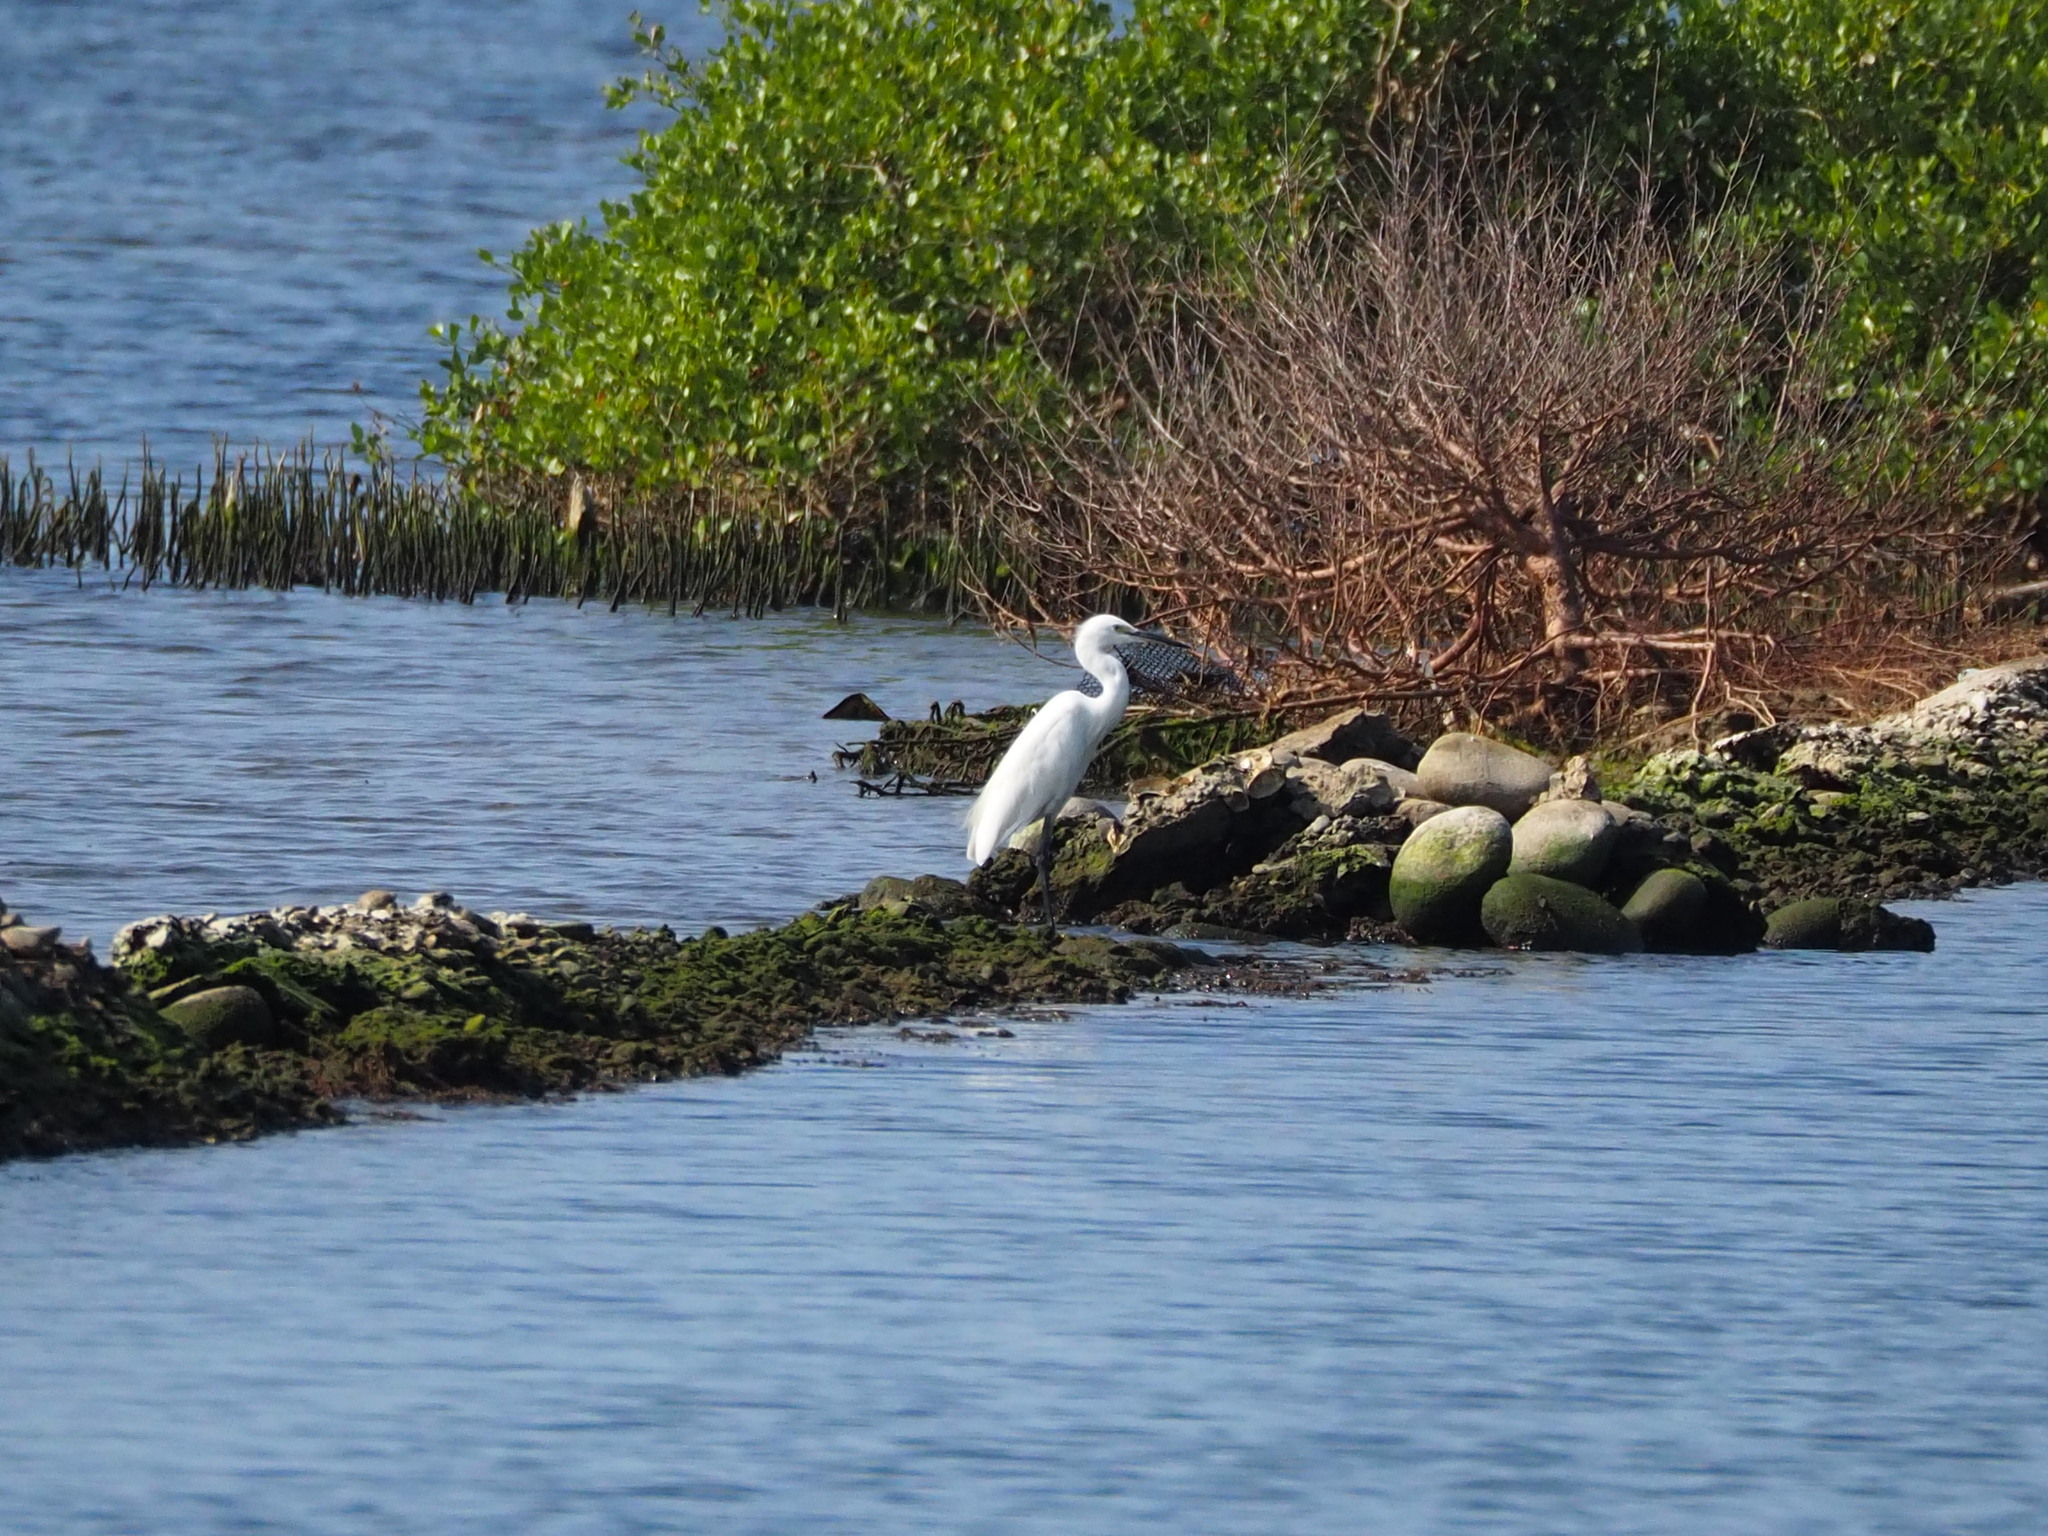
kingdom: Animalia
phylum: Chordata
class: Aves
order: Pelecaniformes
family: Ardeidae
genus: Egretta
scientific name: Egretta garzetta
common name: Little egret
